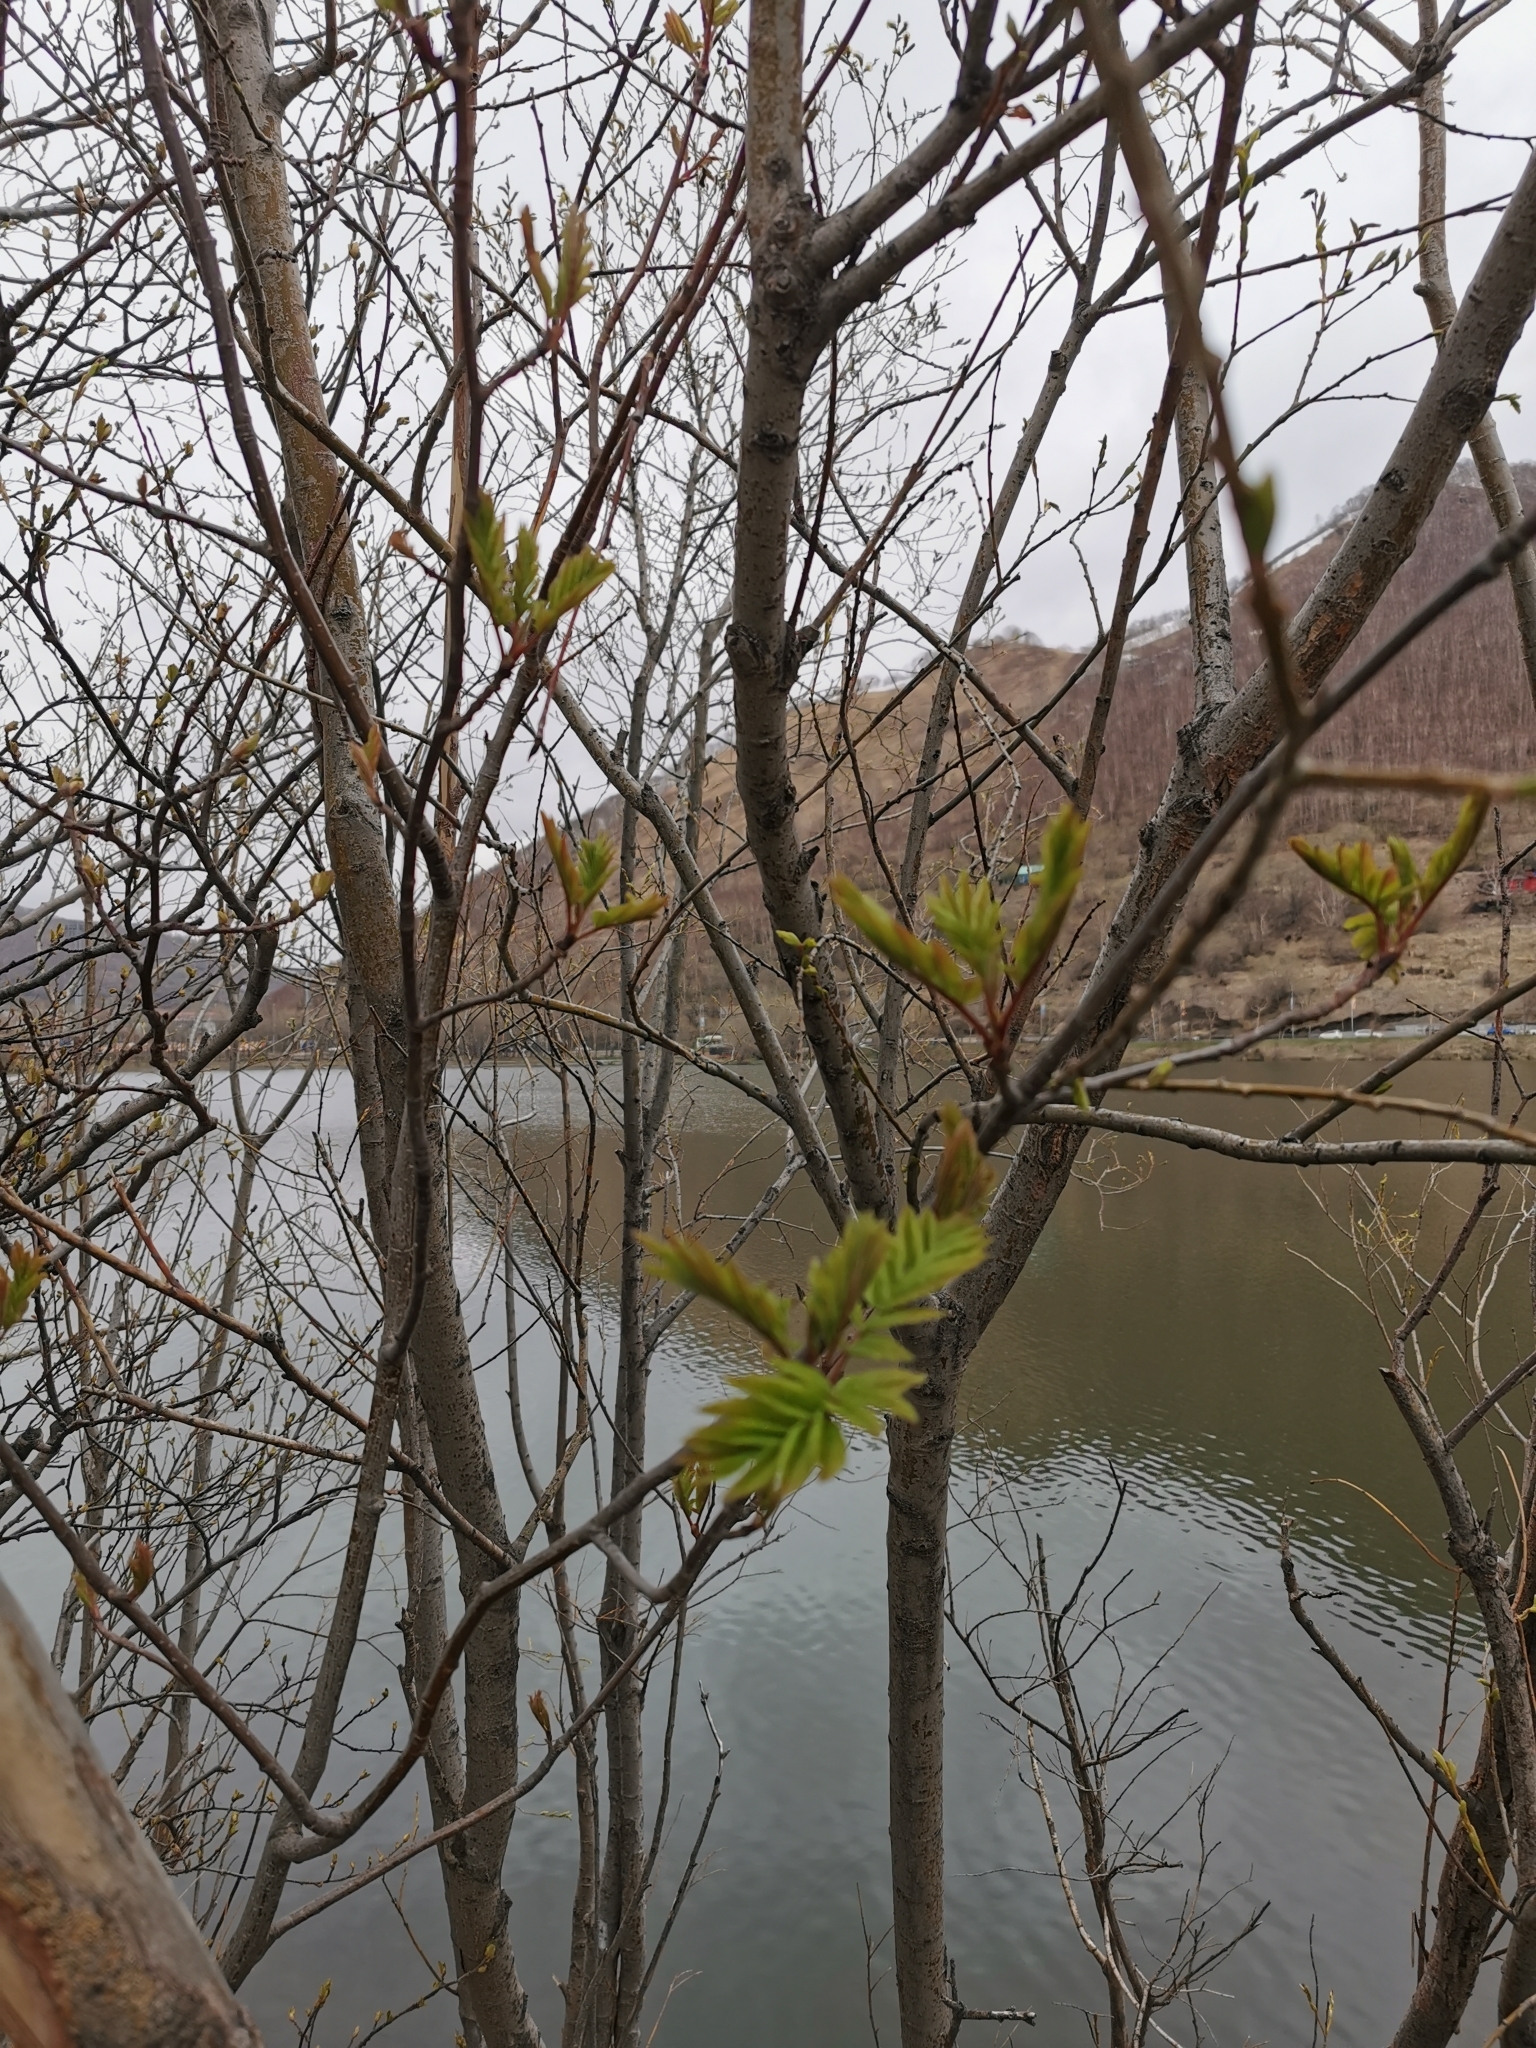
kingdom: Plantae
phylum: Tracheophyta
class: Magnoliopsida
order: Rosales
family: Rosaceae
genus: Sorbus
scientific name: Sorbus aucuparia
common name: Rowan
